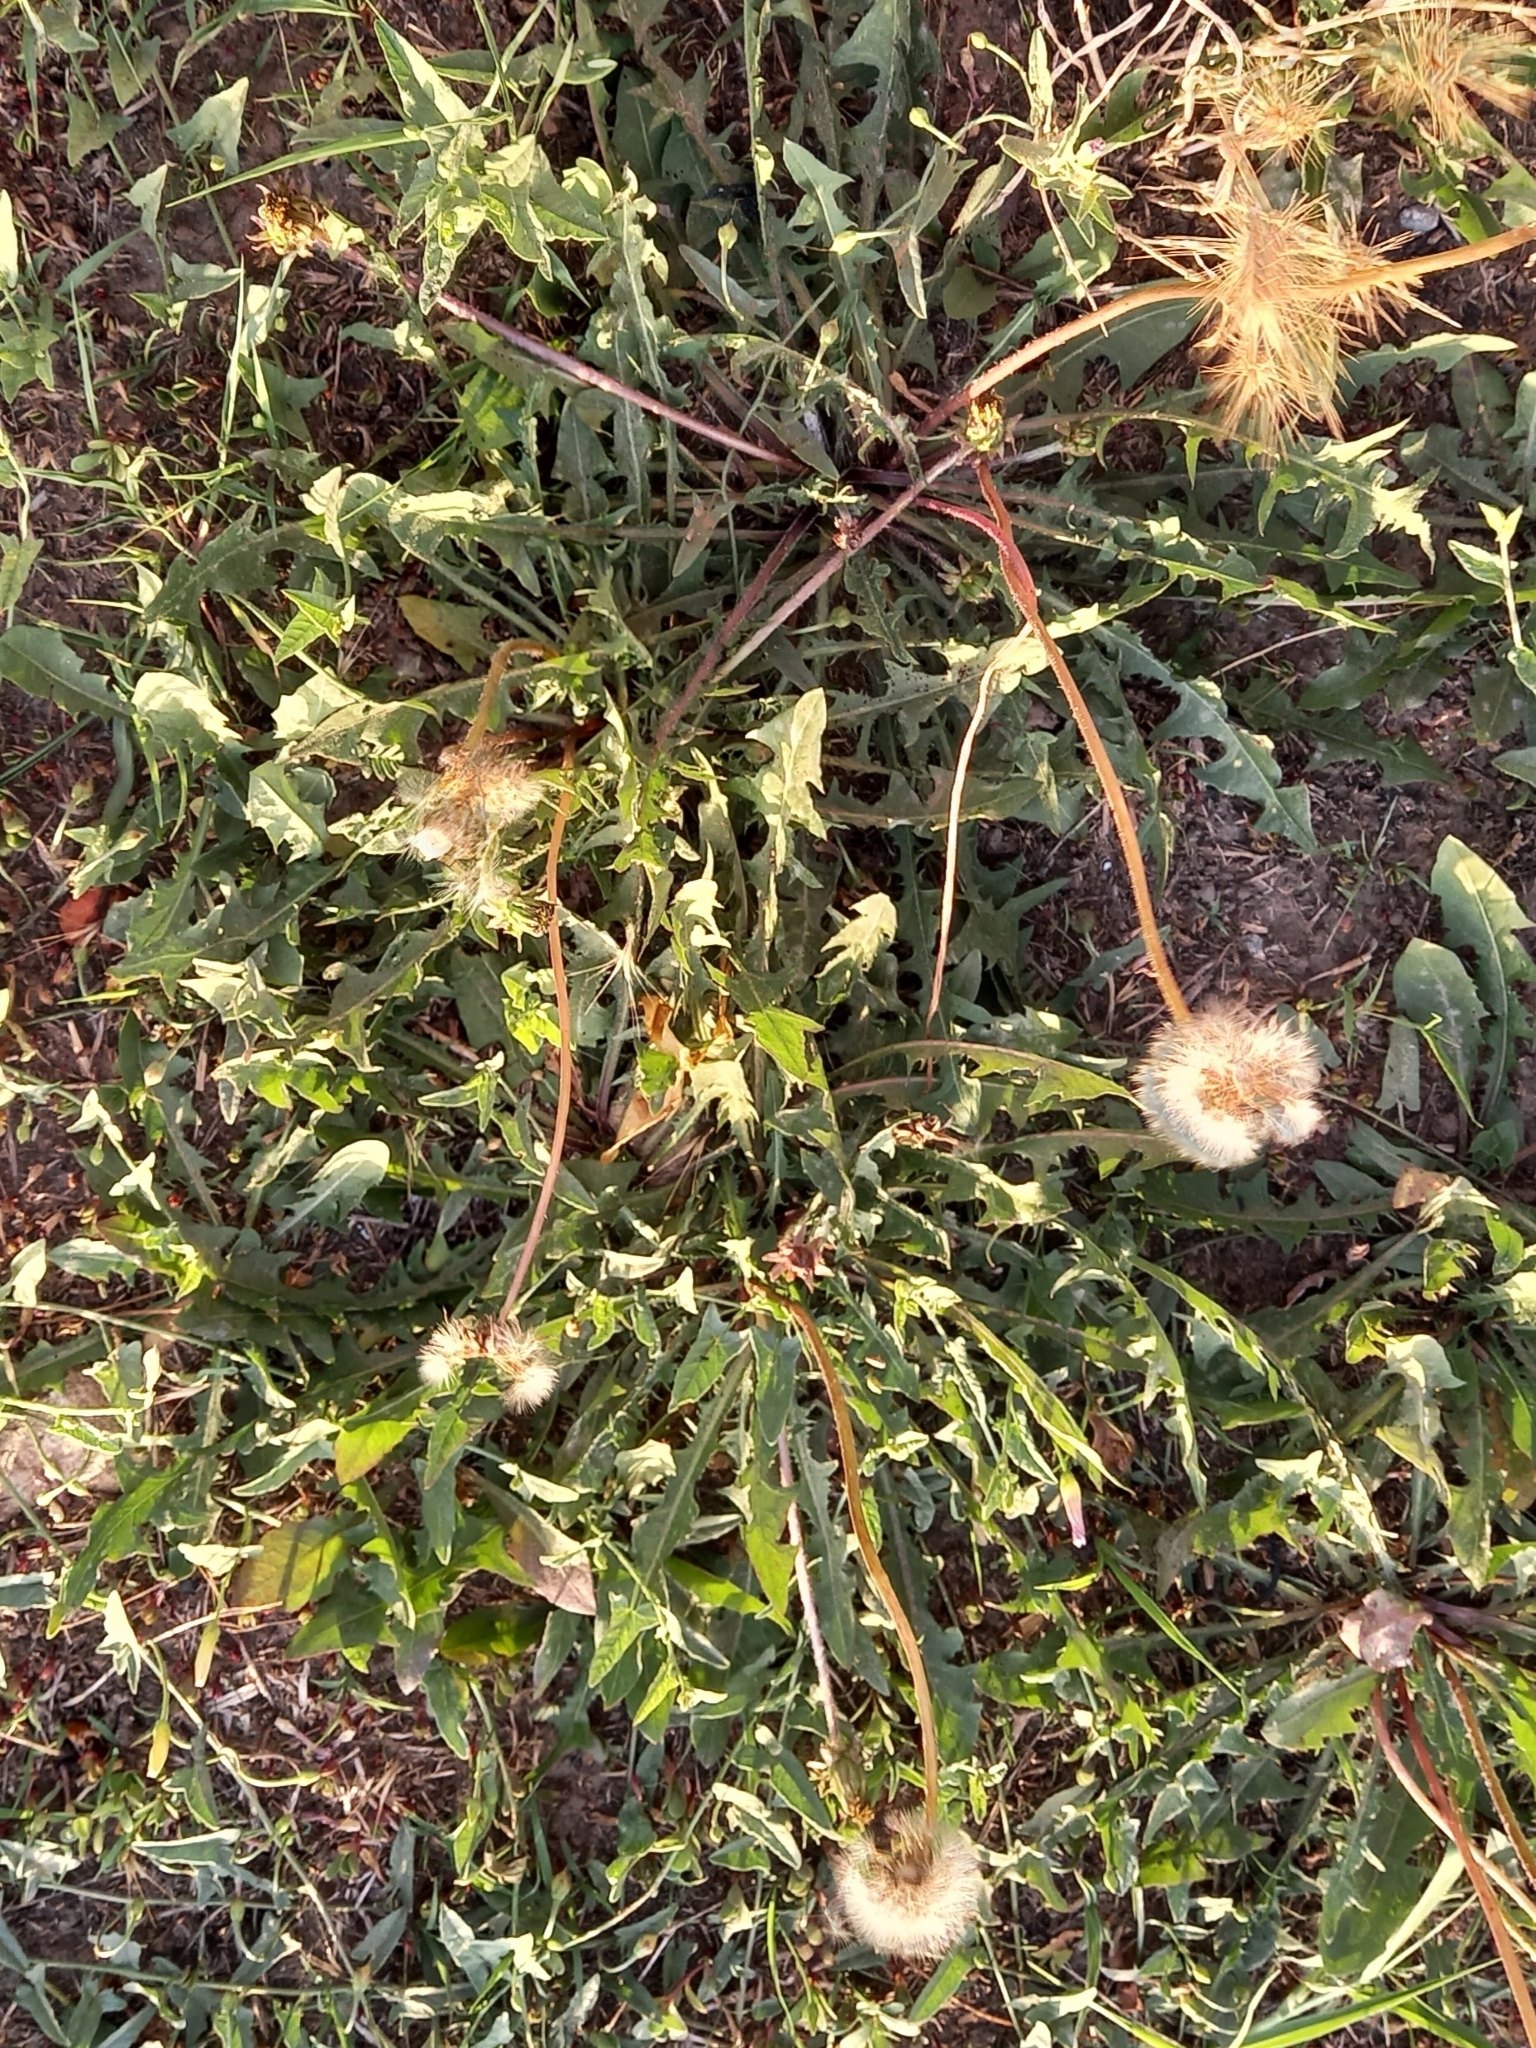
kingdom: Plantae
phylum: Tracheophyta
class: Magnoliopsida
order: Asterales
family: Asteraceae
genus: Taraxacum
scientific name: Taraxacum officinale
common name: Common dandelion
